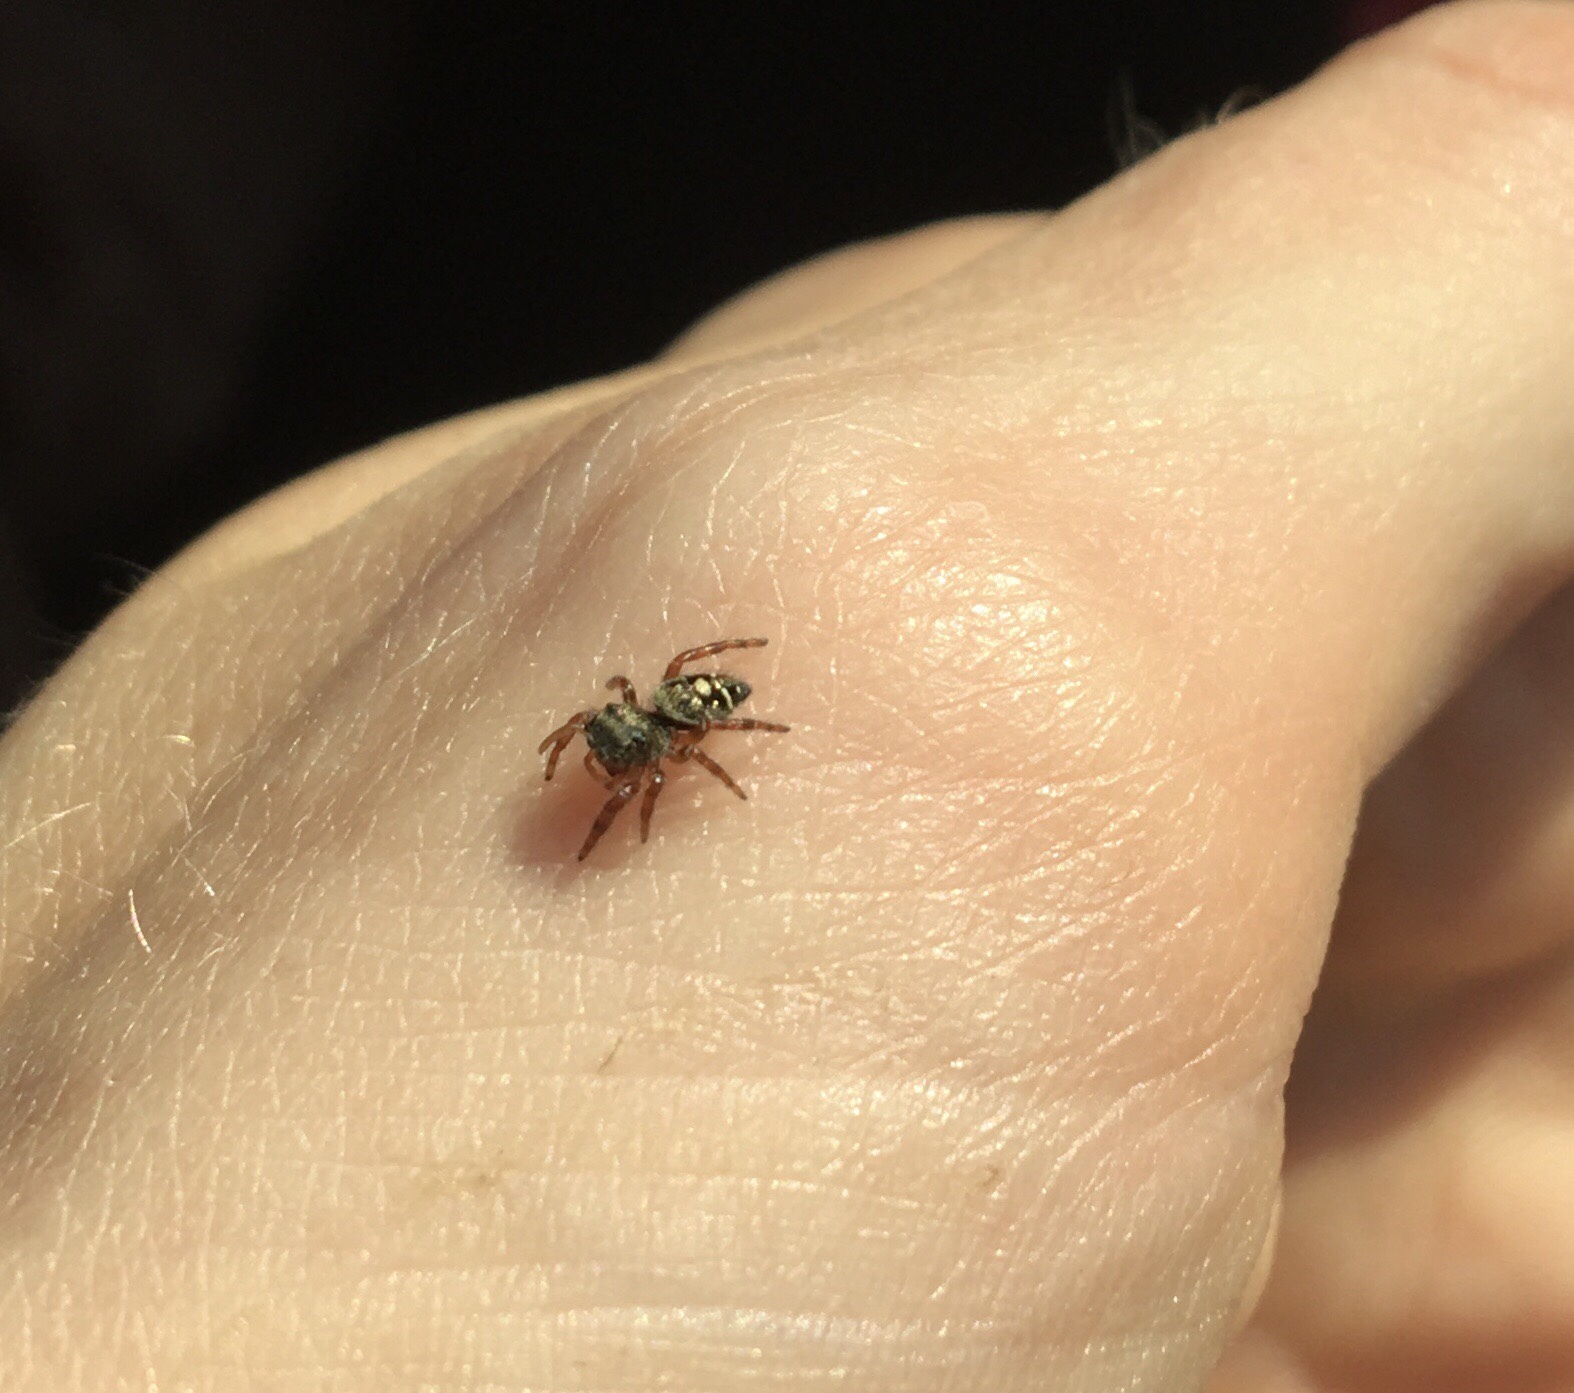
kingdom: Animalia
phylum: Arthropoda
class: Arachnida
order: Araneae
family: Salticidae
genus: Phidippus
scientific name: Phidippus audax
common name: Bold jumper
